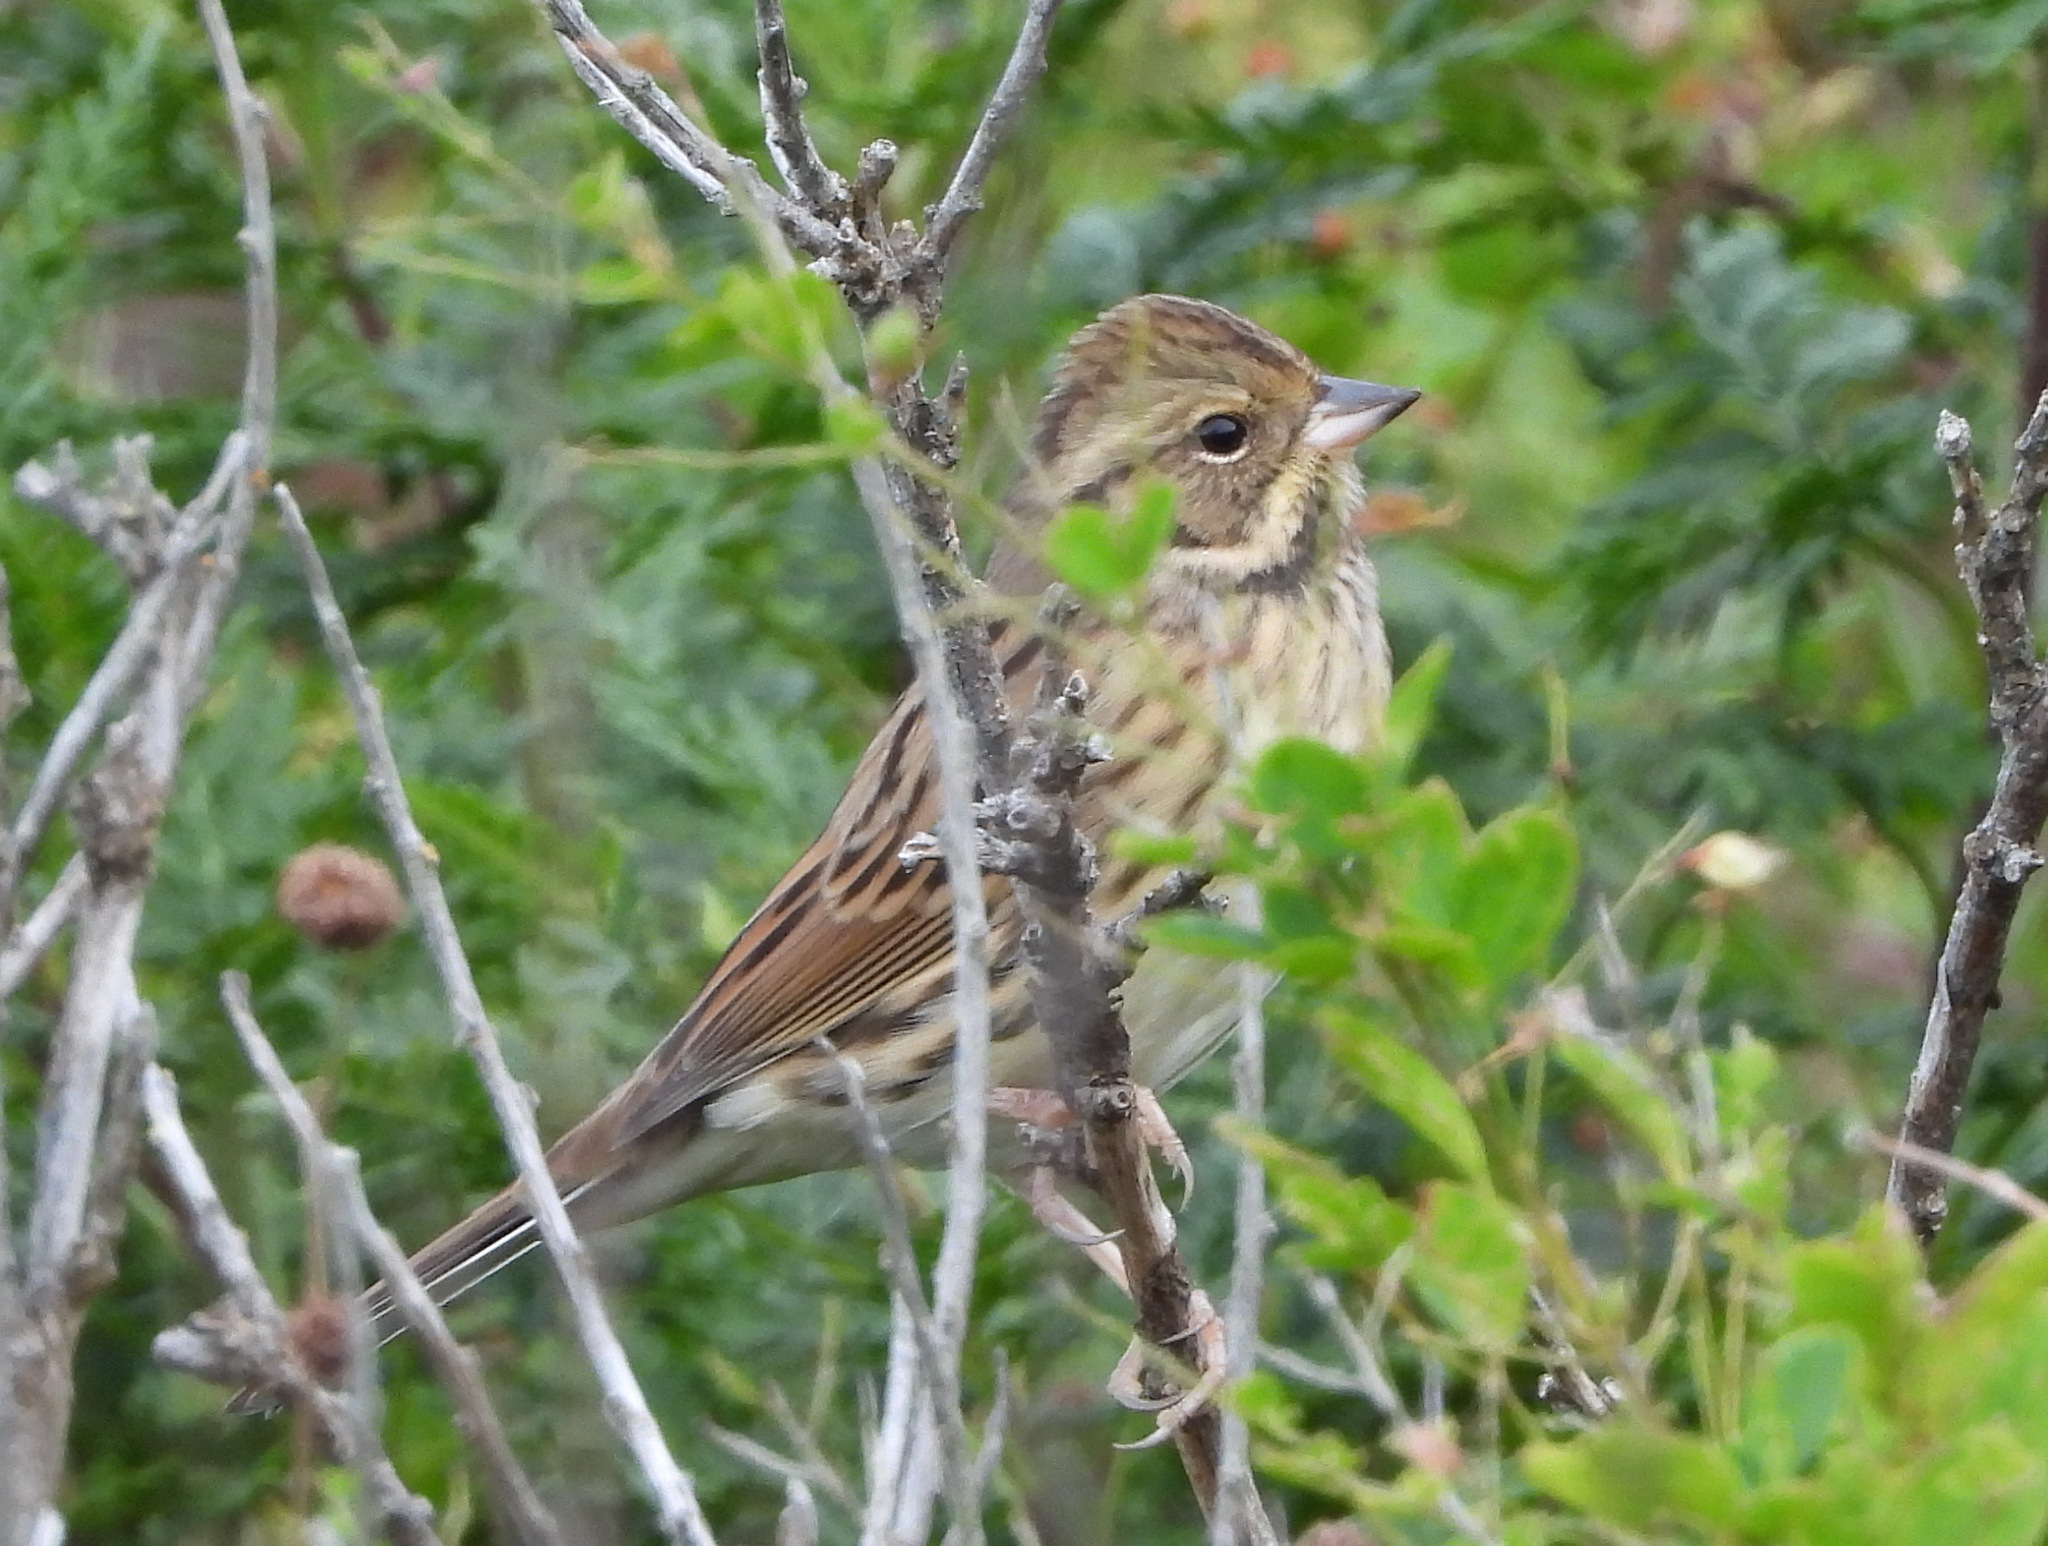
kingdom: Animalia
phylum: Chordata
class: Aves
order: Passeriformes
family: Emberizidae
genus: Emberiza
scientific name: Emberiza spodocephala
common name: Black-faced bunting
